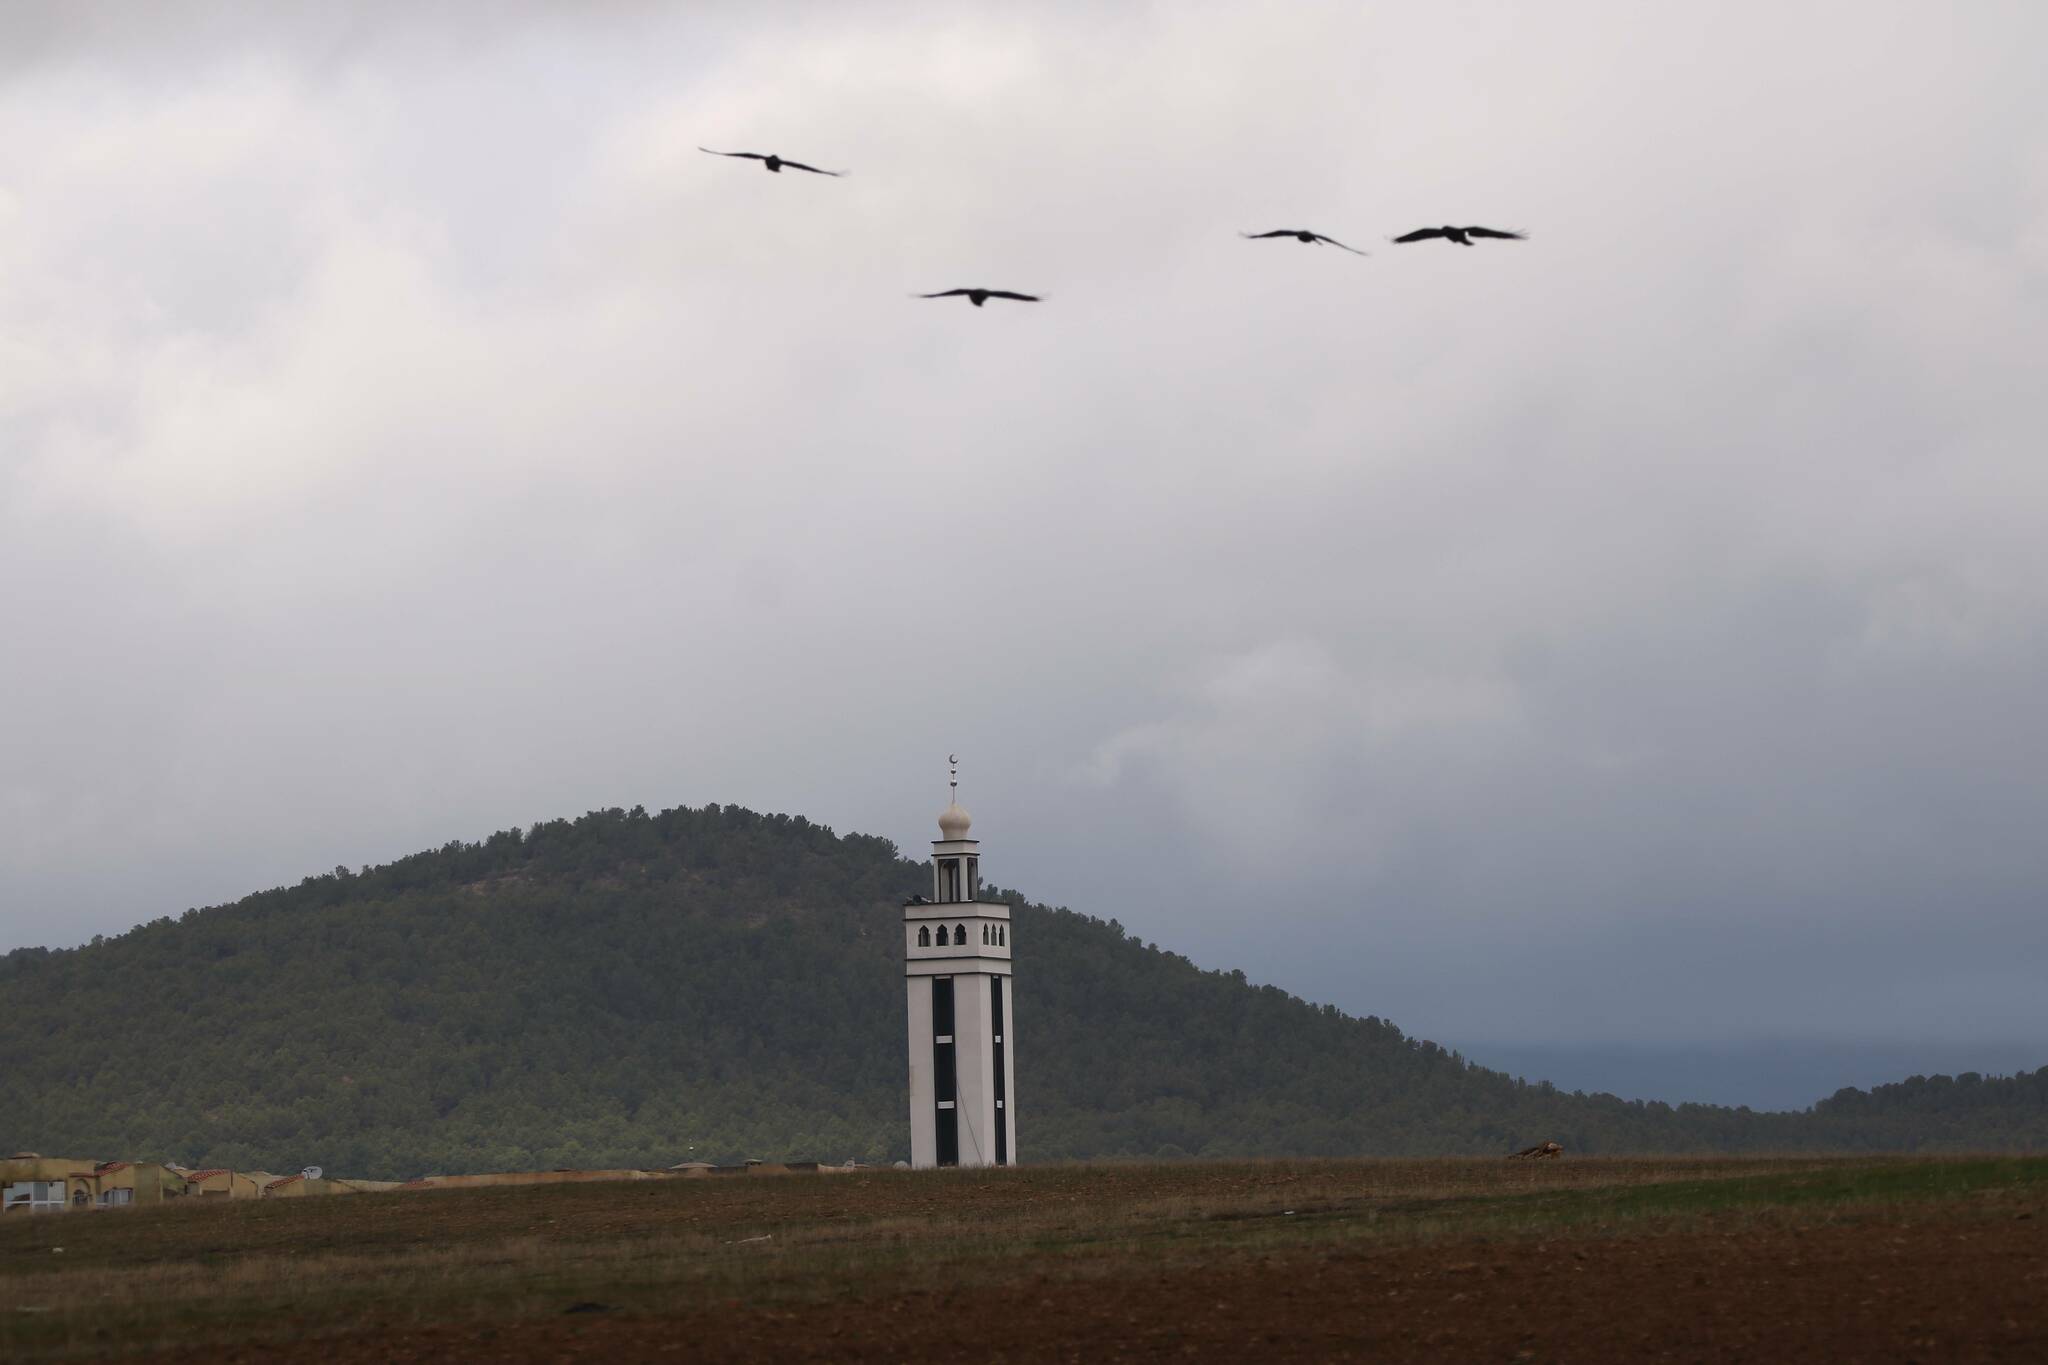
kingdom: Animalia
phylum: Chordata
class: Aves
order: Passeriformes
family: Corvidae
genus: Corvus
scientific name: Corvus corax
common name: Common raven
